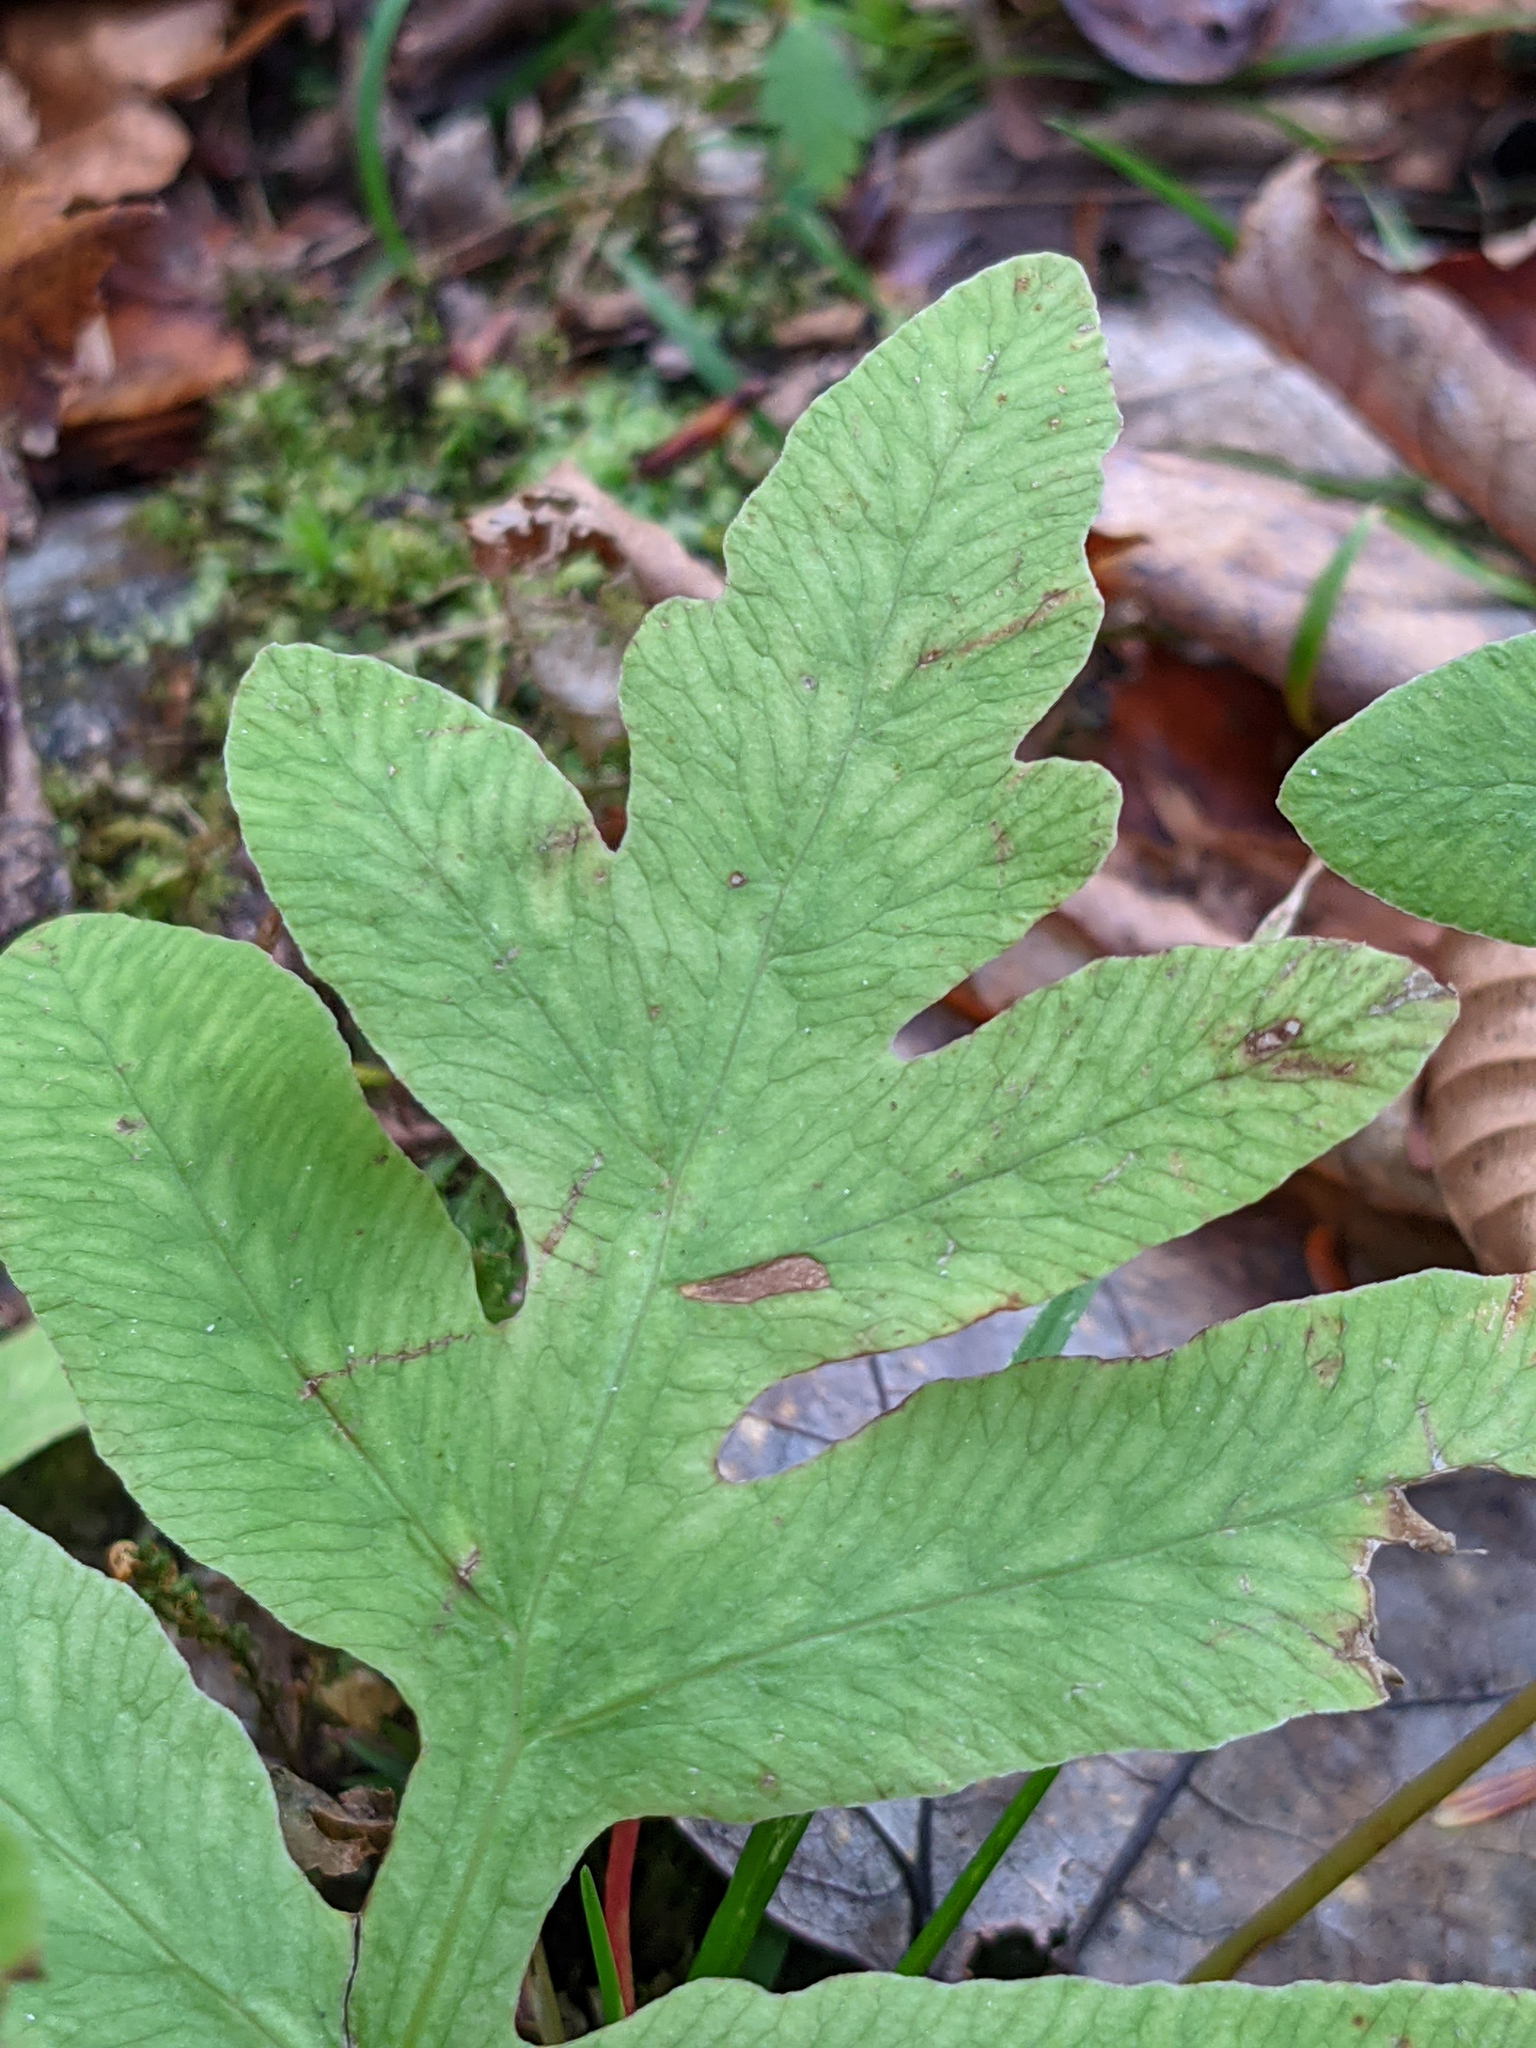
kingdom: Plantae
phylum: Tracheophyta
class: Polypodiopsida
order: Polypodiales
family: Onocleaceae
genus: Onoclea
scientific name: Onoclea sensibilis
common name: Sensitive fern
